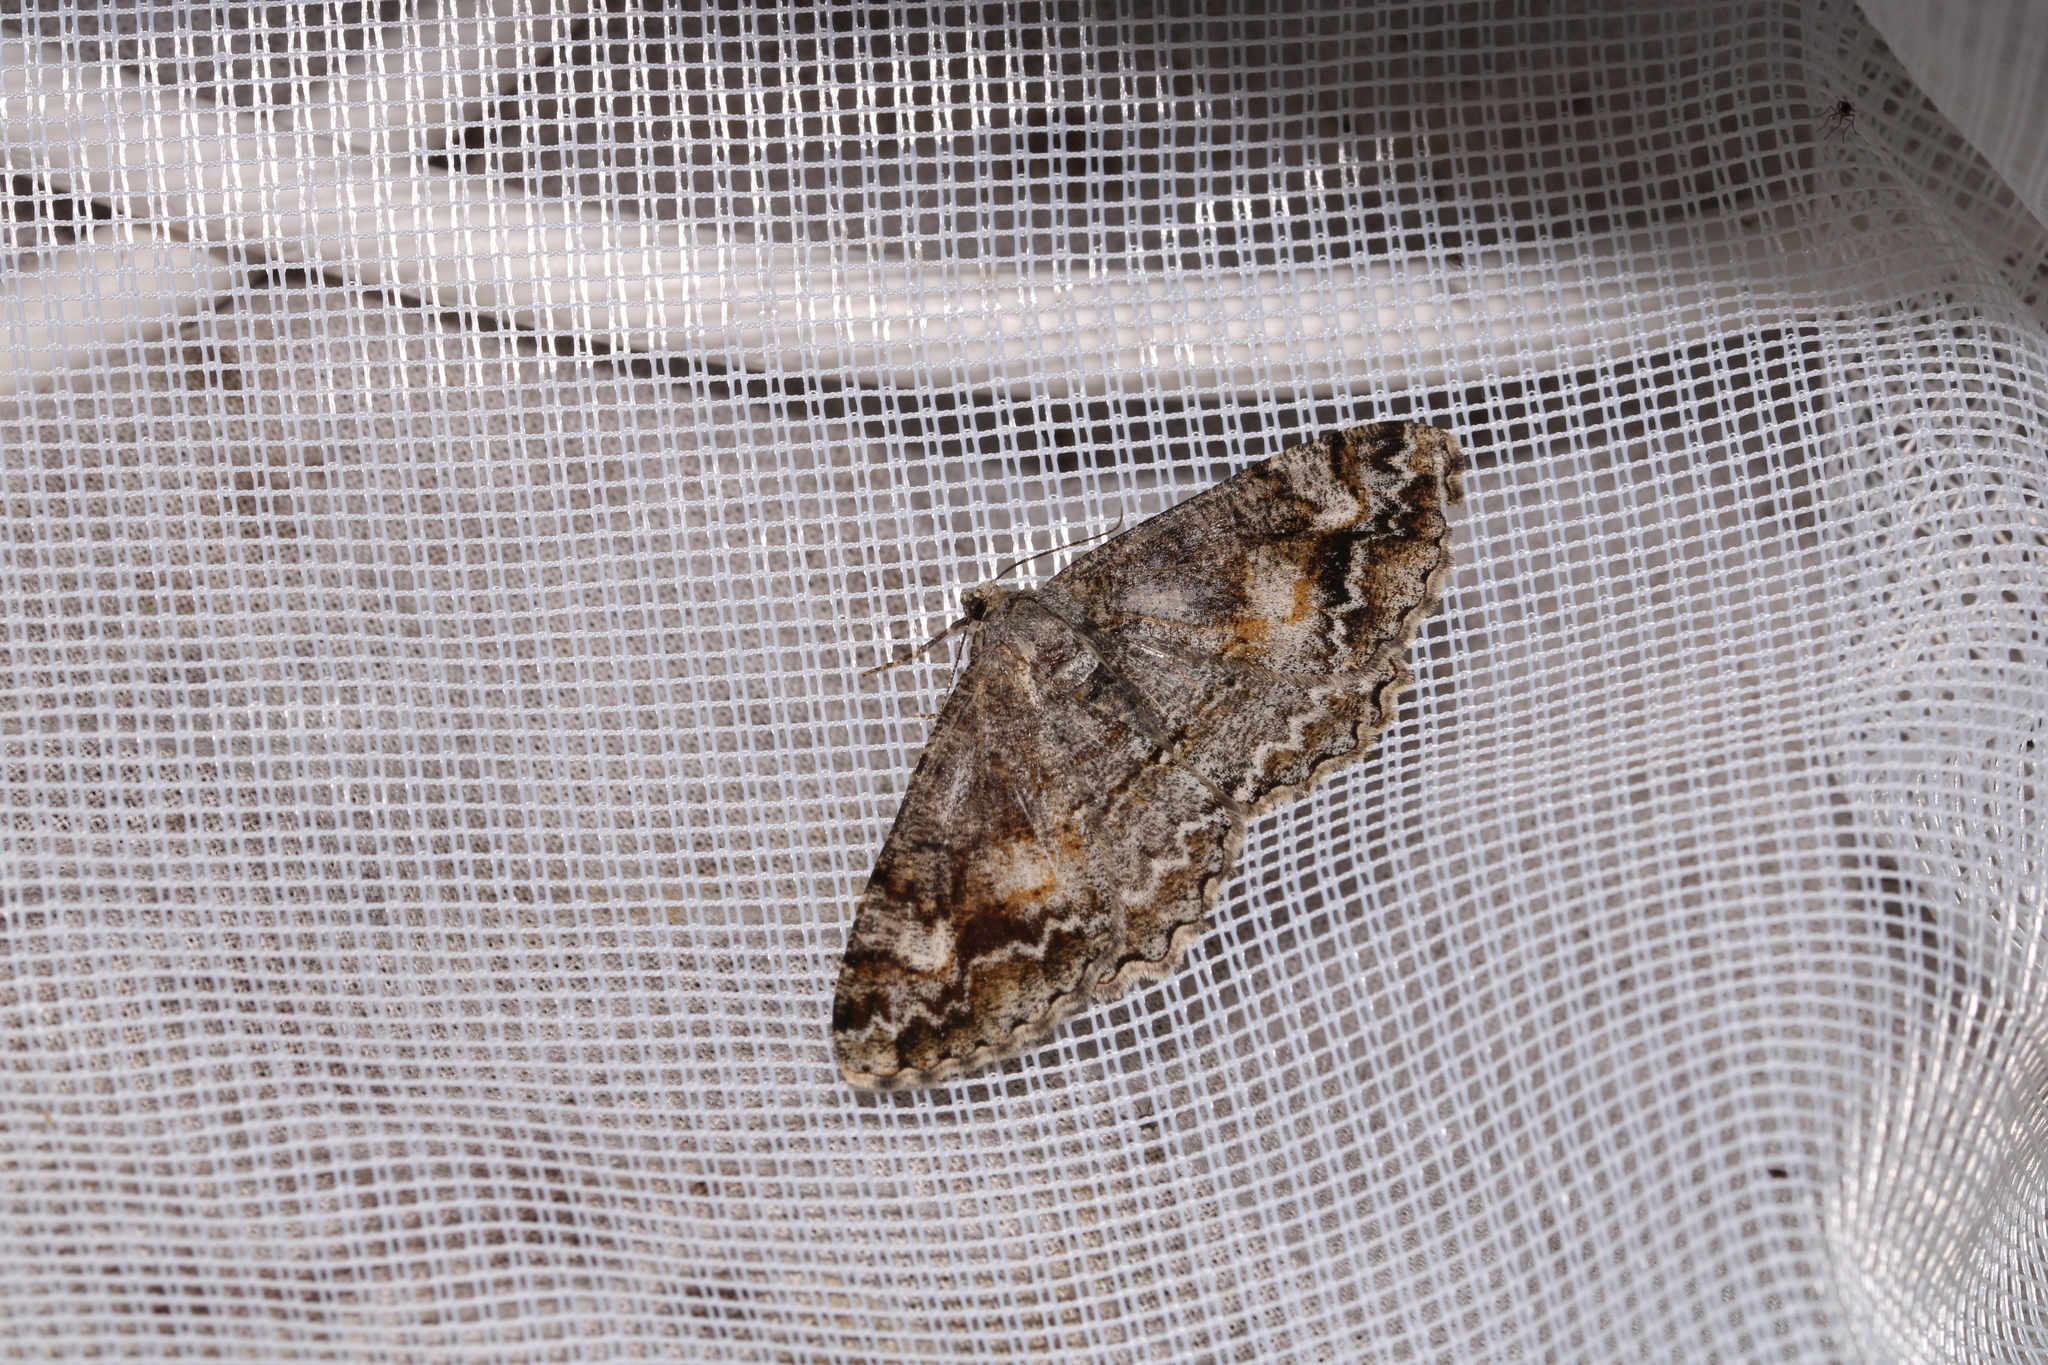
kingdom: Animalia
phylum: Arthropoda
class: Insecta
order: Lepidoptera
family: Geometridae
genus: Alcis
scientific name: Alcis repandata
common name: Mottled beauty
